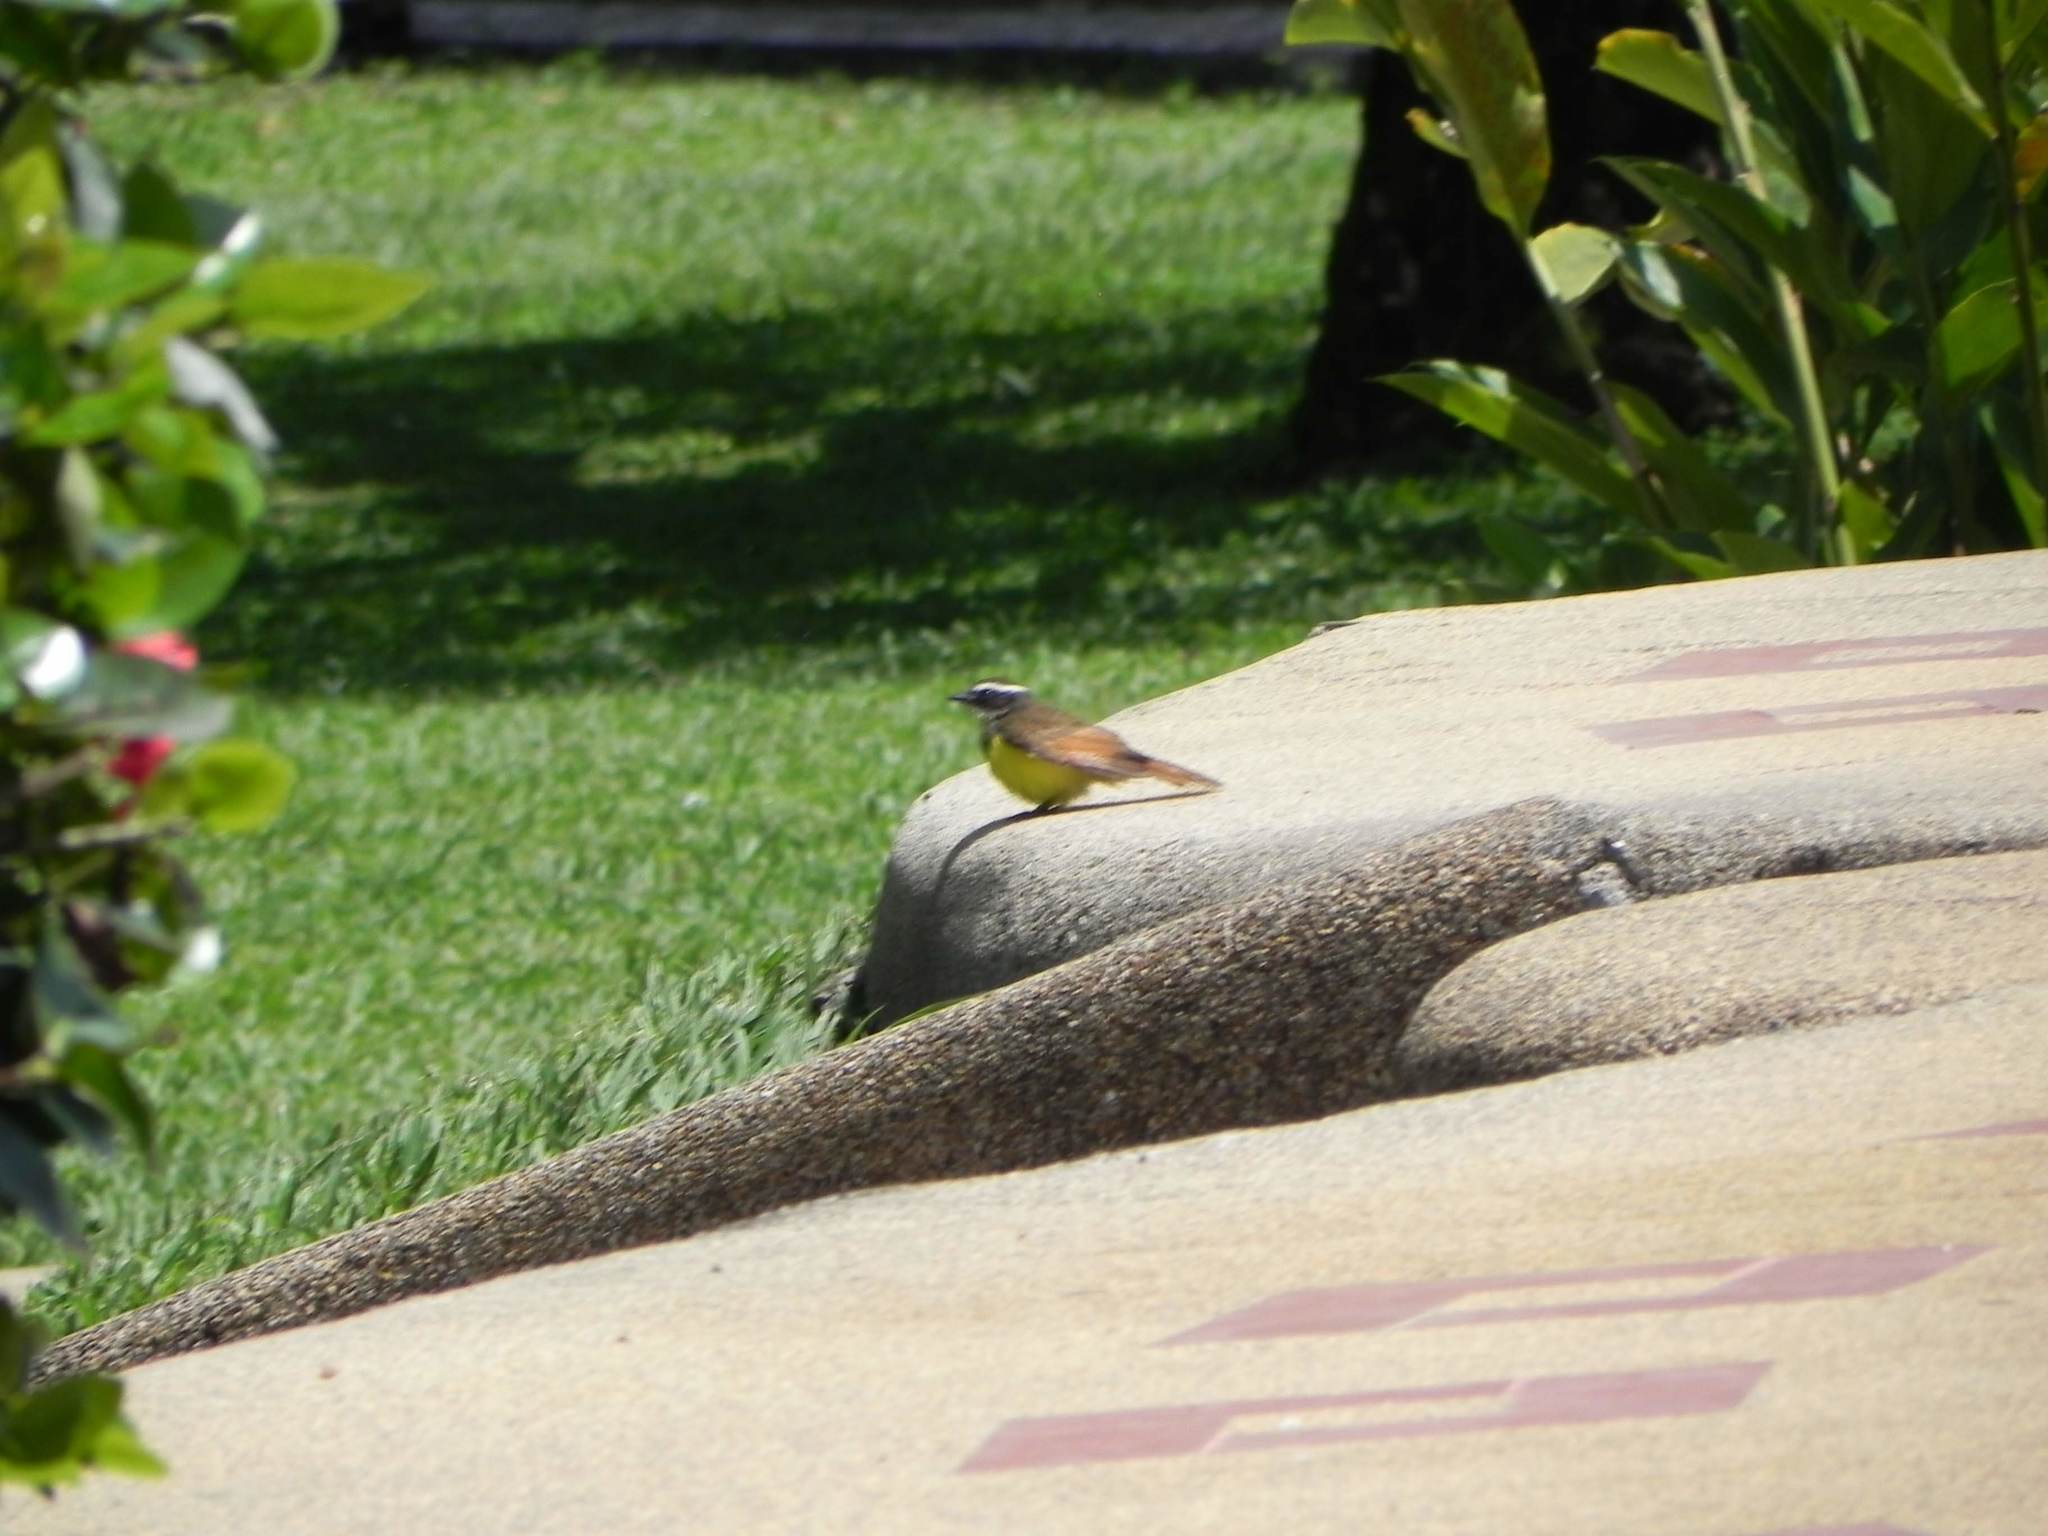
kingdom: Animalia
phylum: Chordata
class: Aves
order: Passeriformes
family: Tyrannidae
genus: Pitangus
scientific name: Pitangus sulphuratus
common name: Great kiskadee
